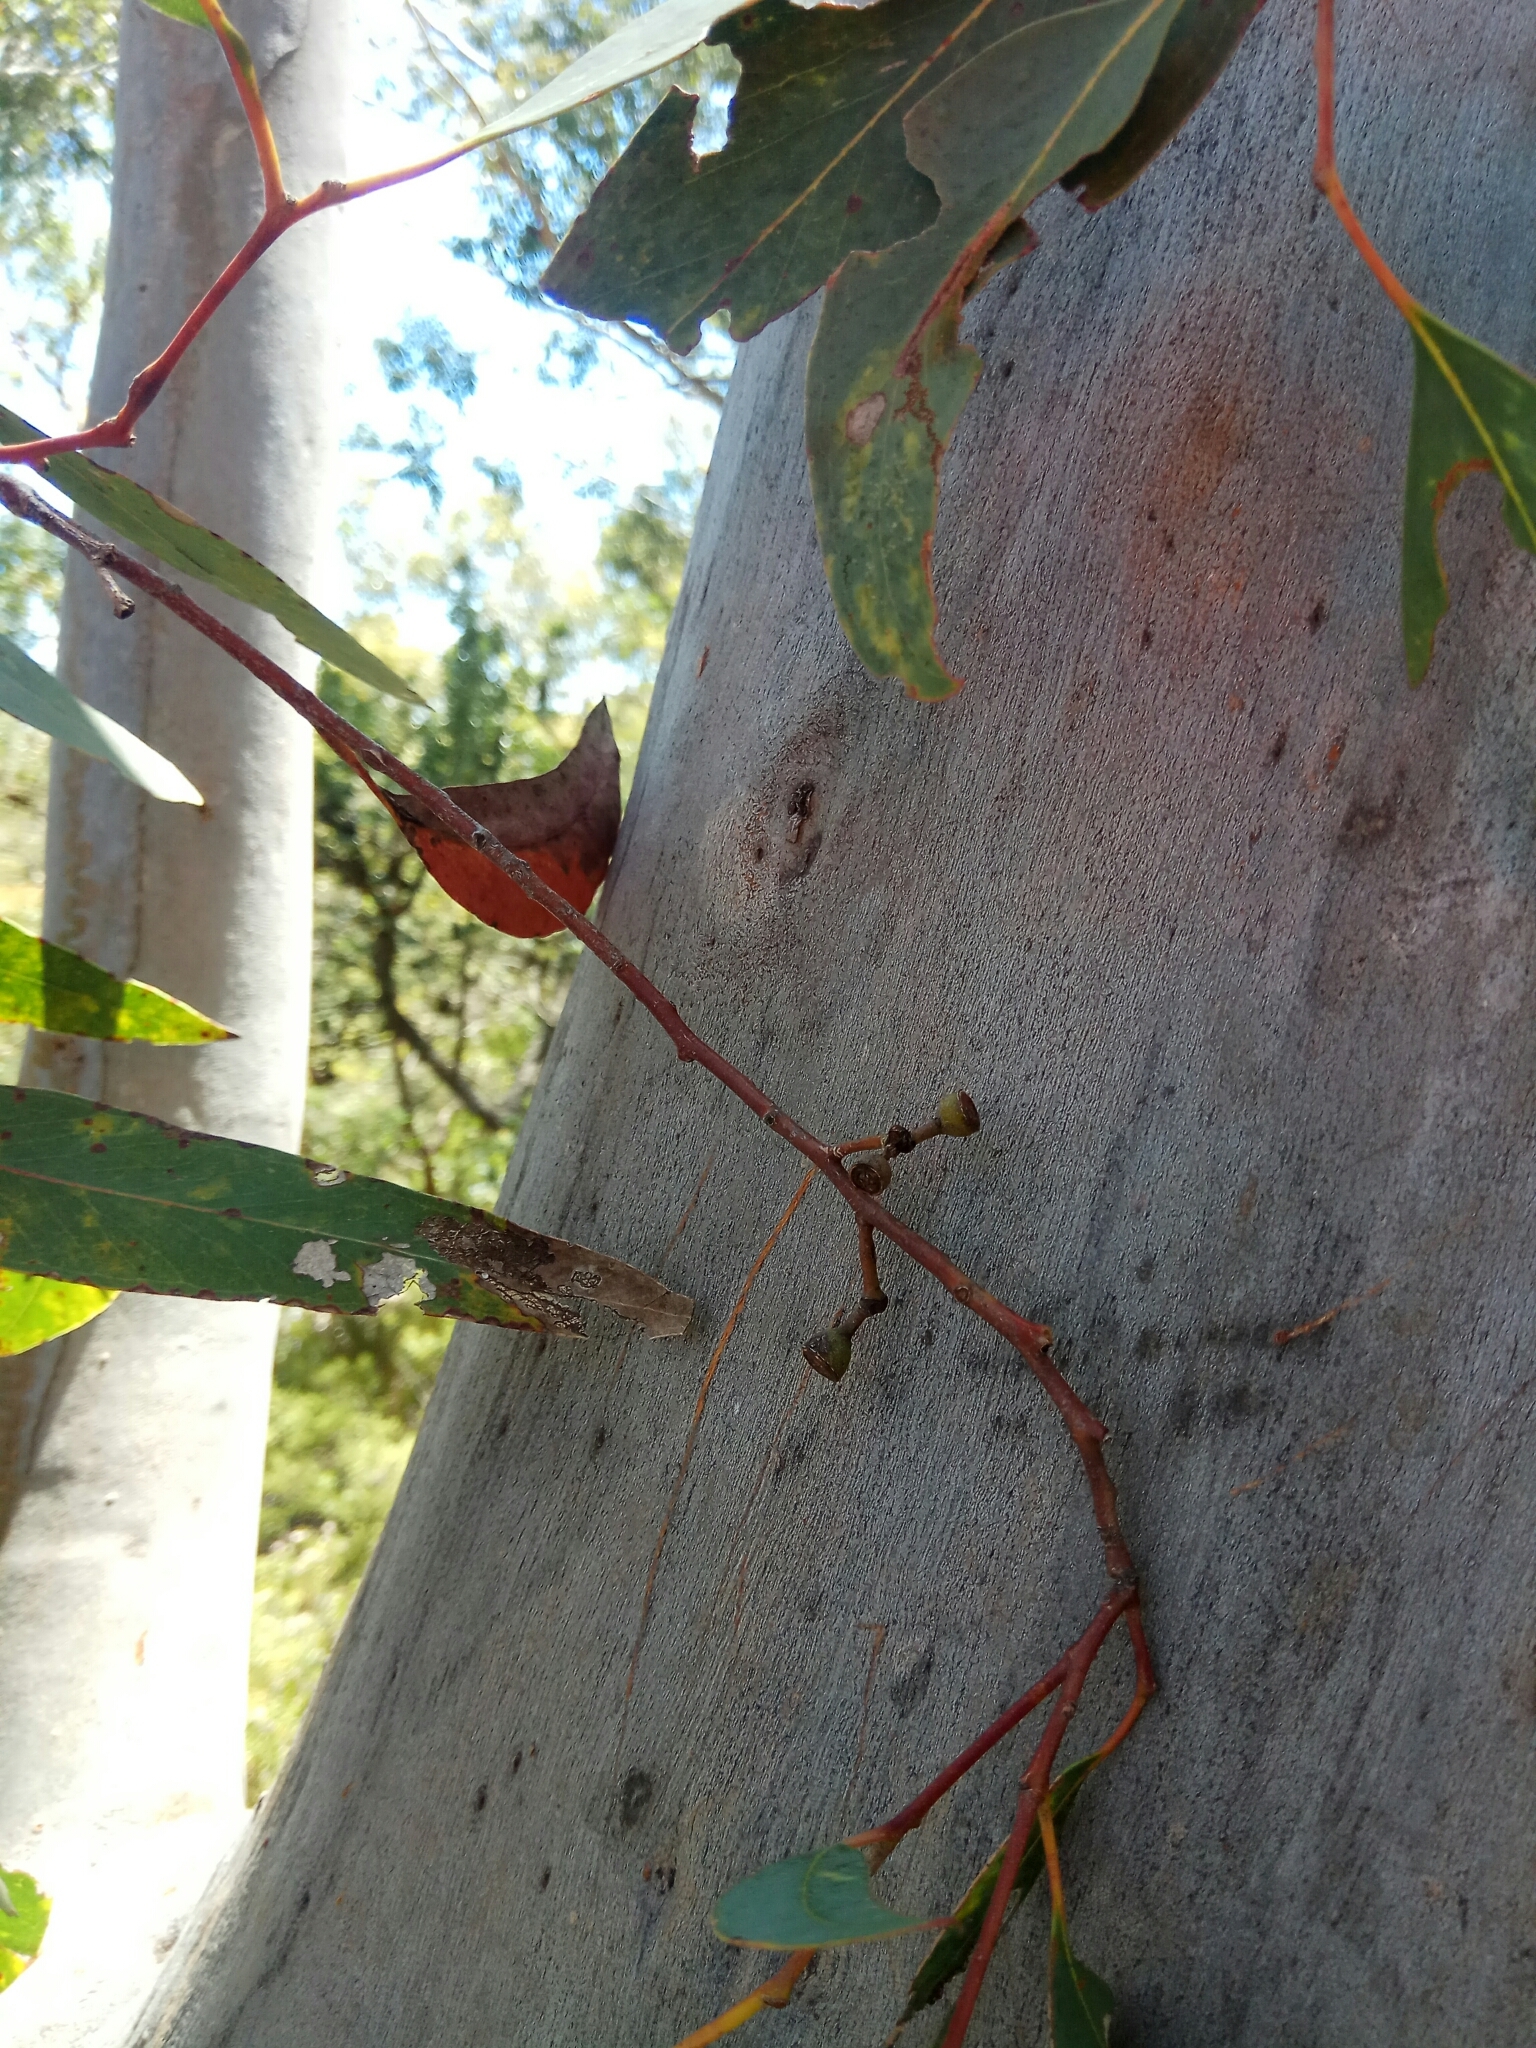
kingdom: Plantae
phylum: Tracheophyta
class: Magnoliopsida
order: Myrtales
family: Myrtaceae
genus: Eucalyptus
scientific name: Eucalyptus racemosa
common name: Scribbly gum
